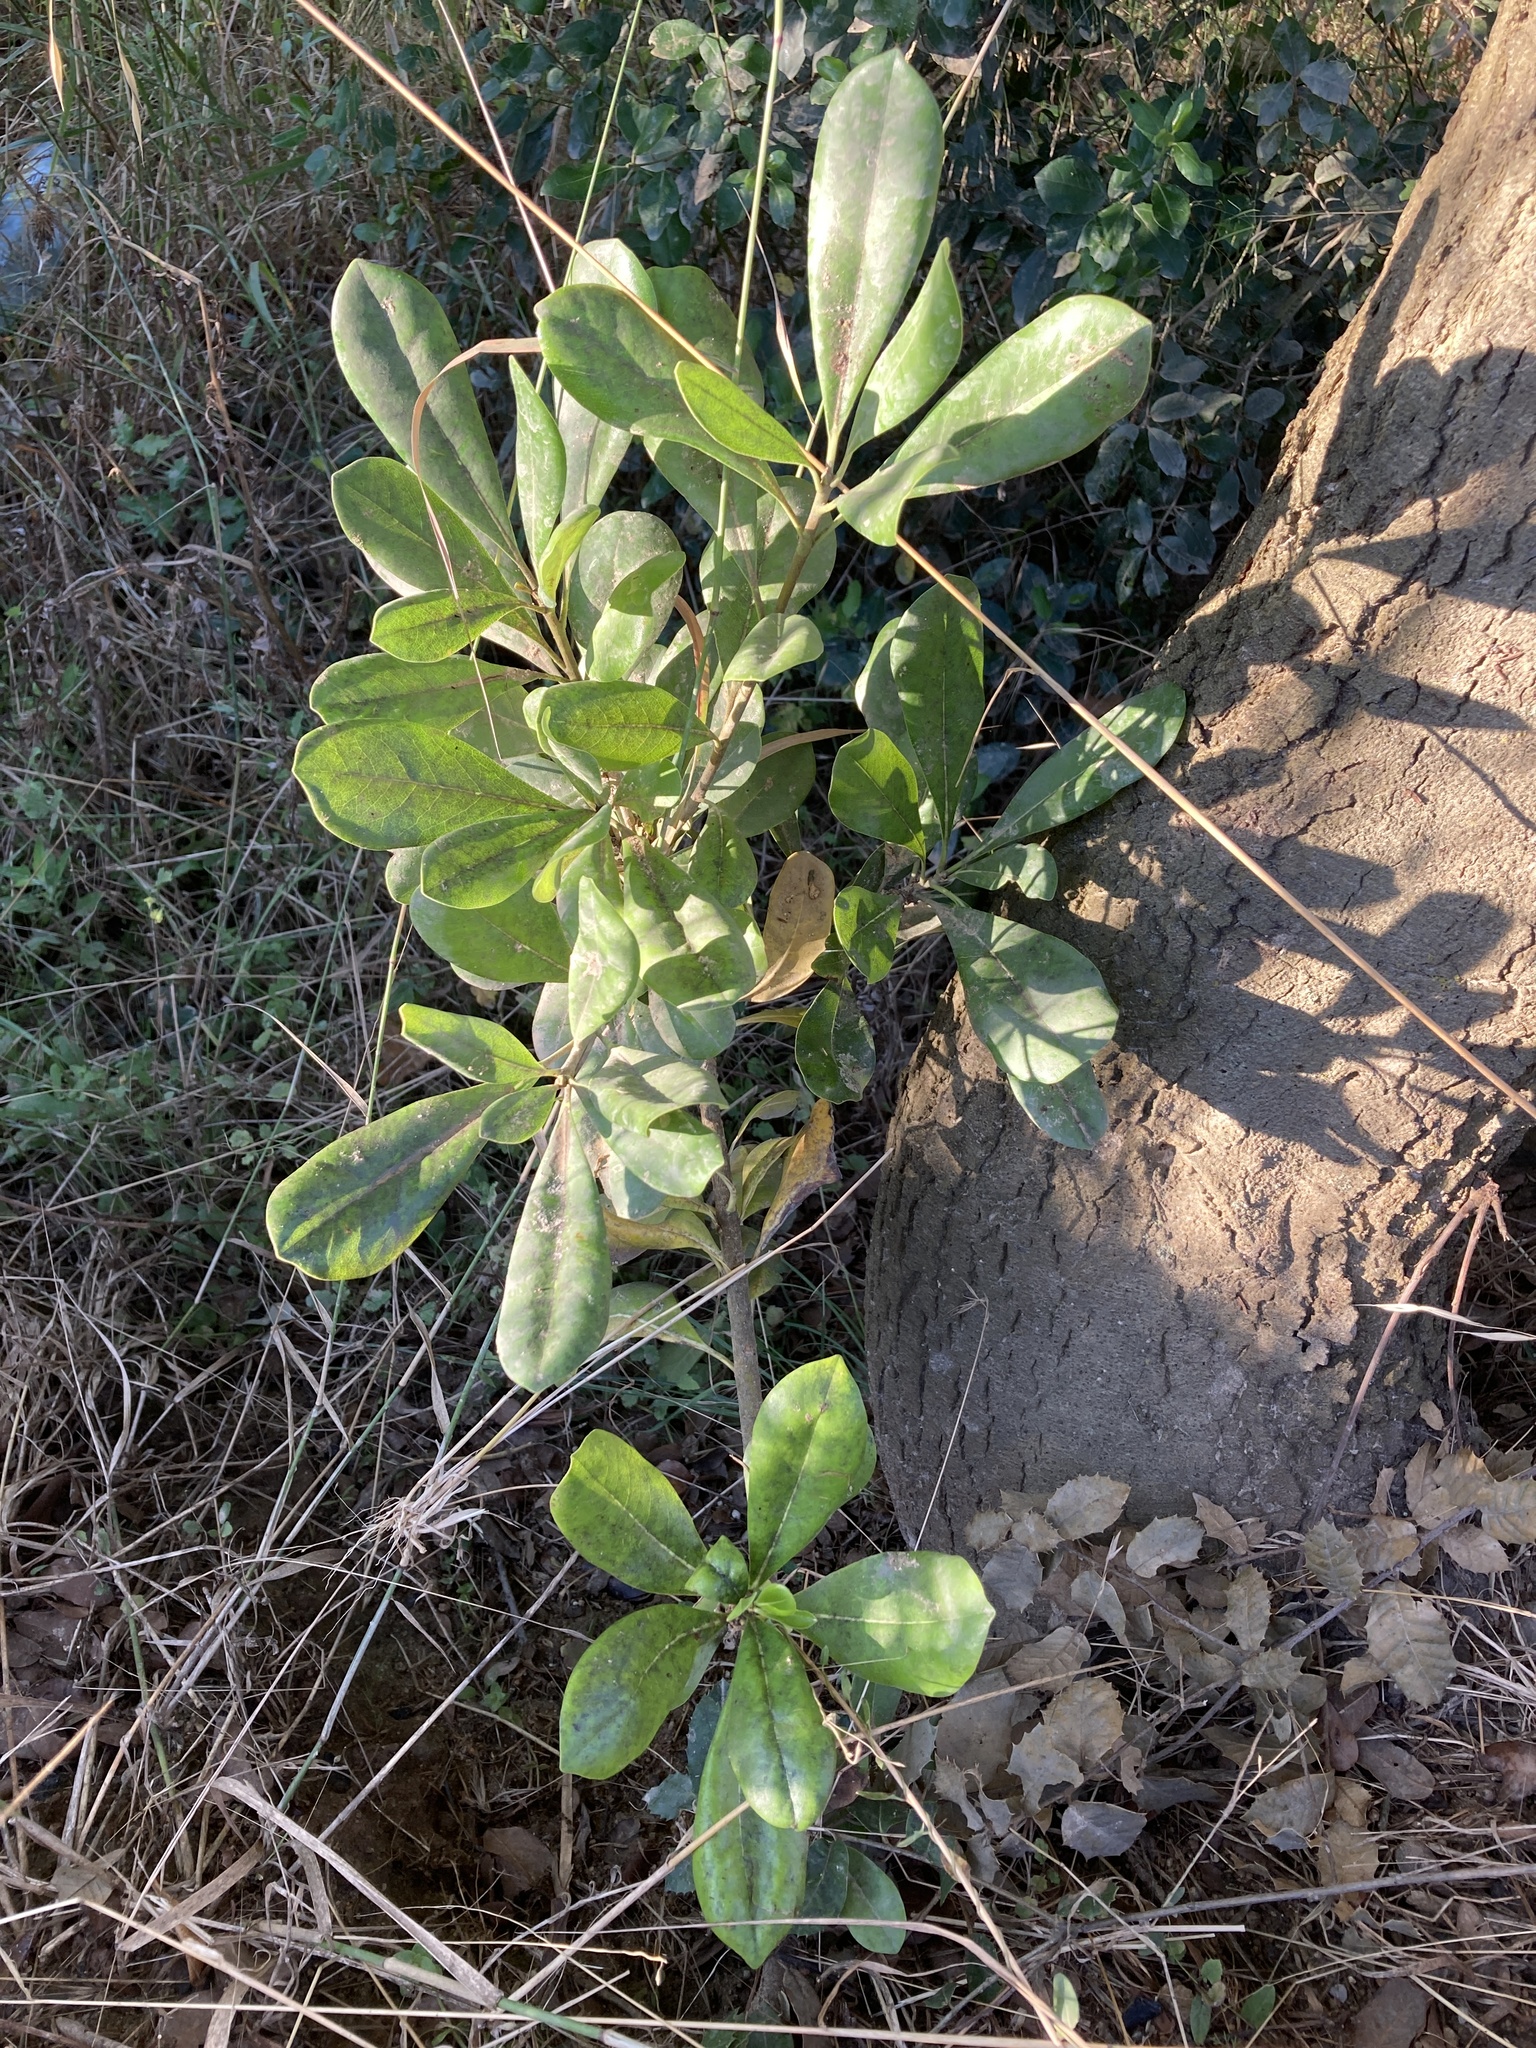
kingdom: Plantae
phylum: Tracheophyta
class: Magnoliopsida
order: Apiales
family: Pittosporaceae
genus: Pittosporum
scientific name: Pittosporum tobira
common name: Japanese cheesewood
